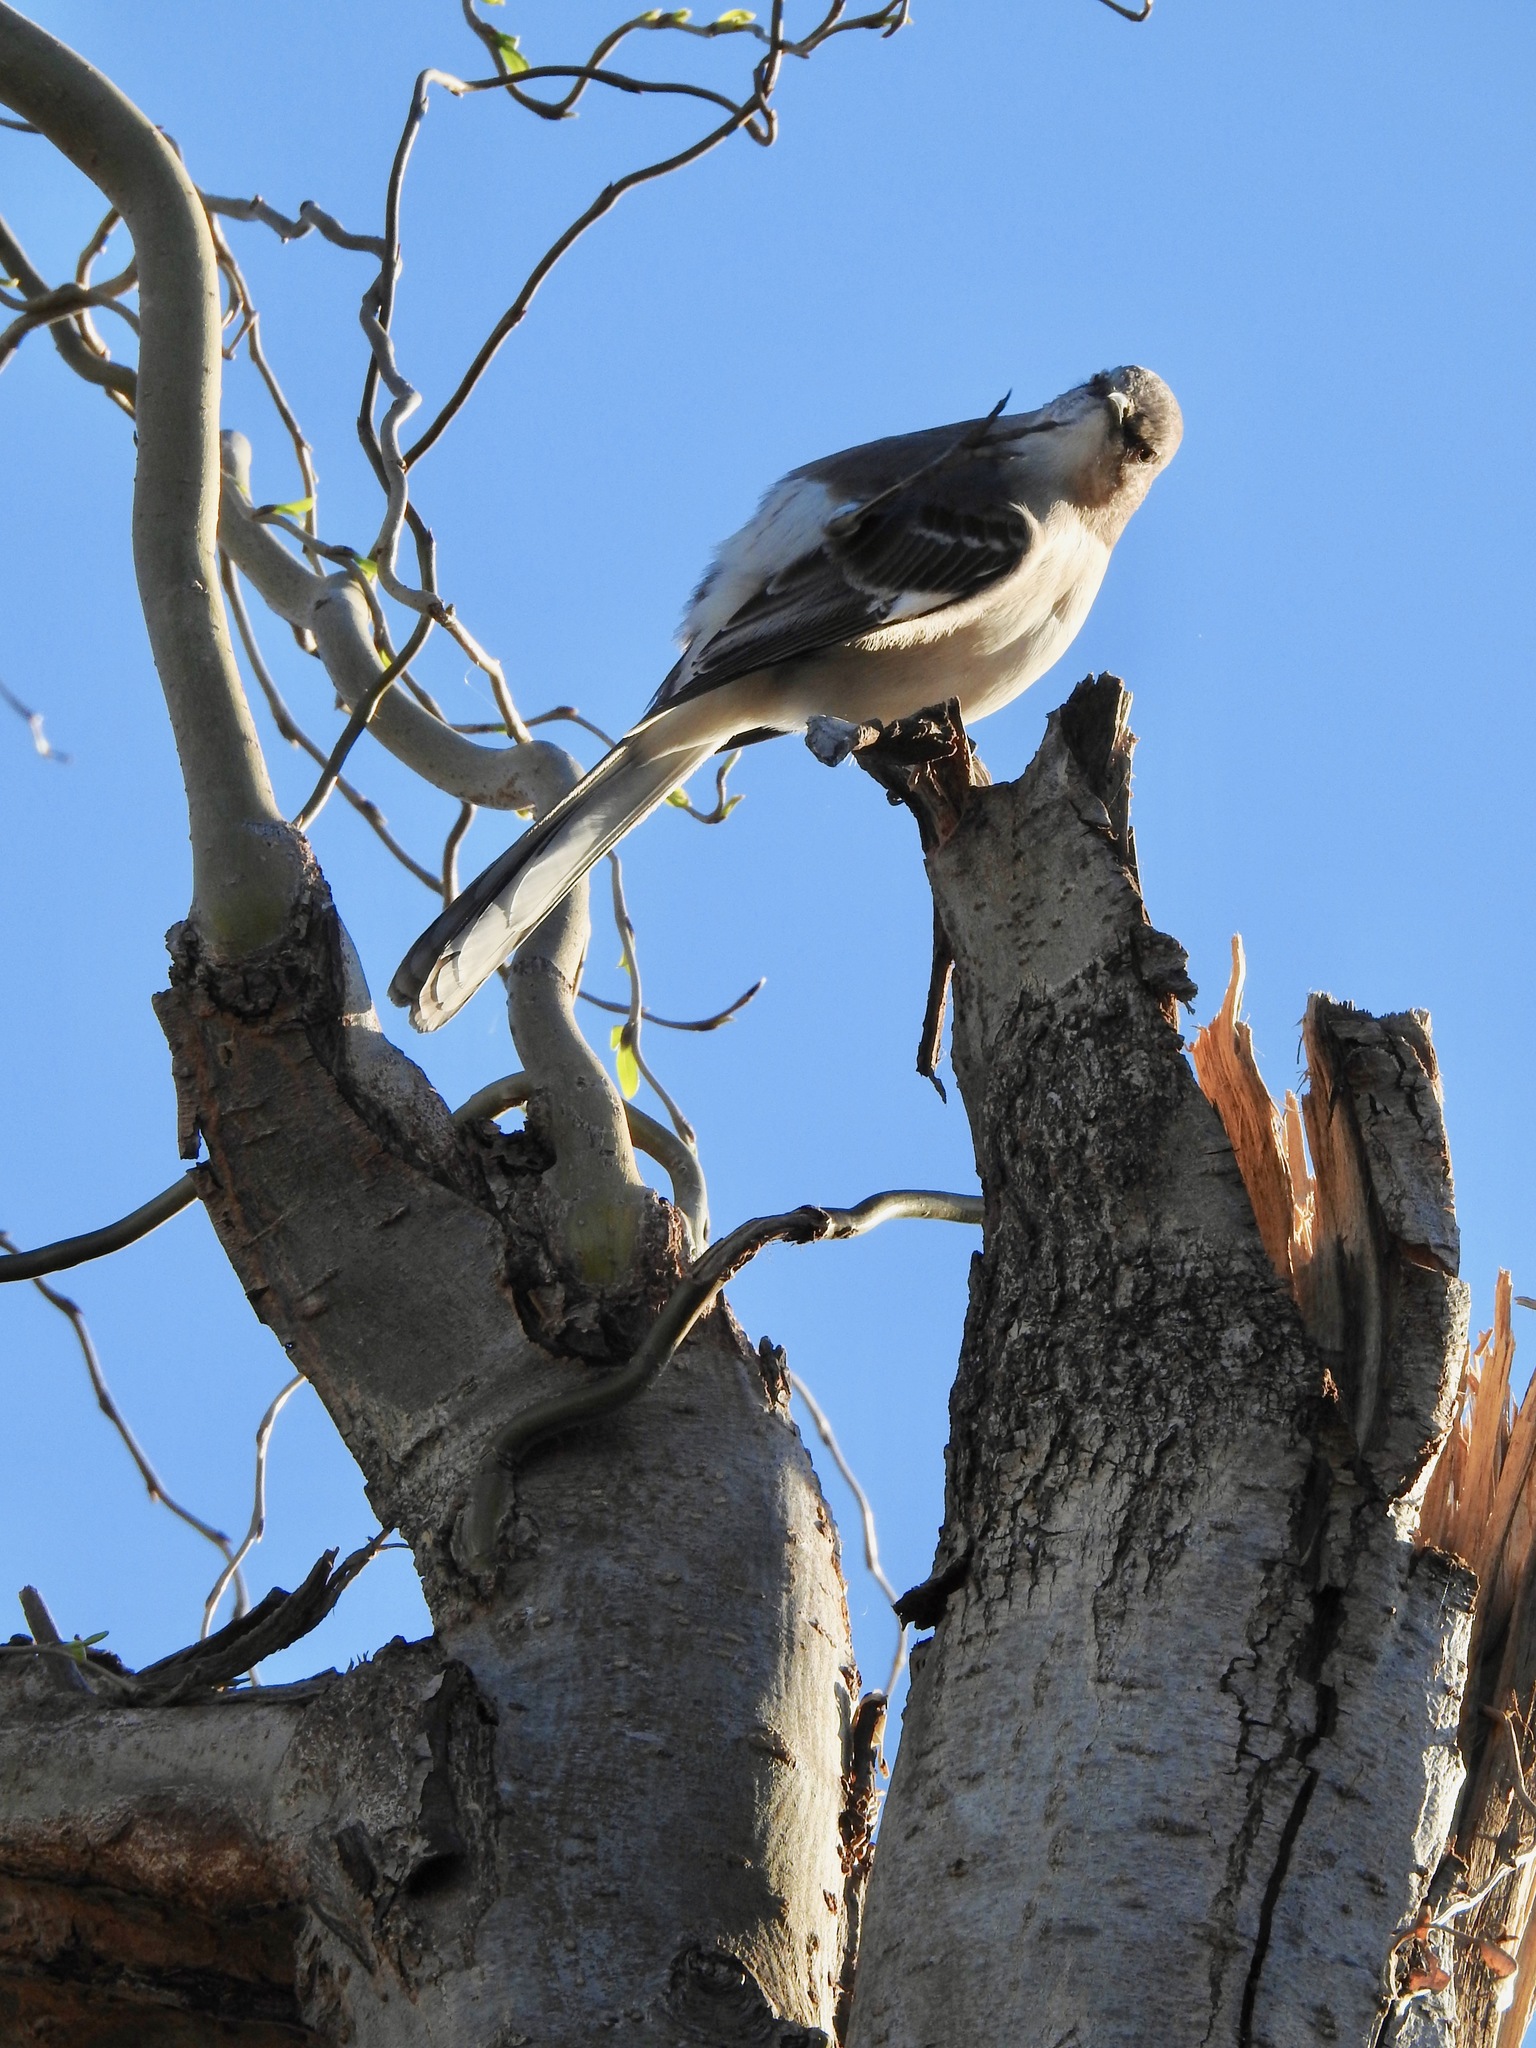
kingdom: Animalia
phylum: Chordata
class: Aves
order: Passeriformes
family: Mimidae
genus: Mimus
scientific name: Mimus polyglottos
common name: Northern mockingbird
